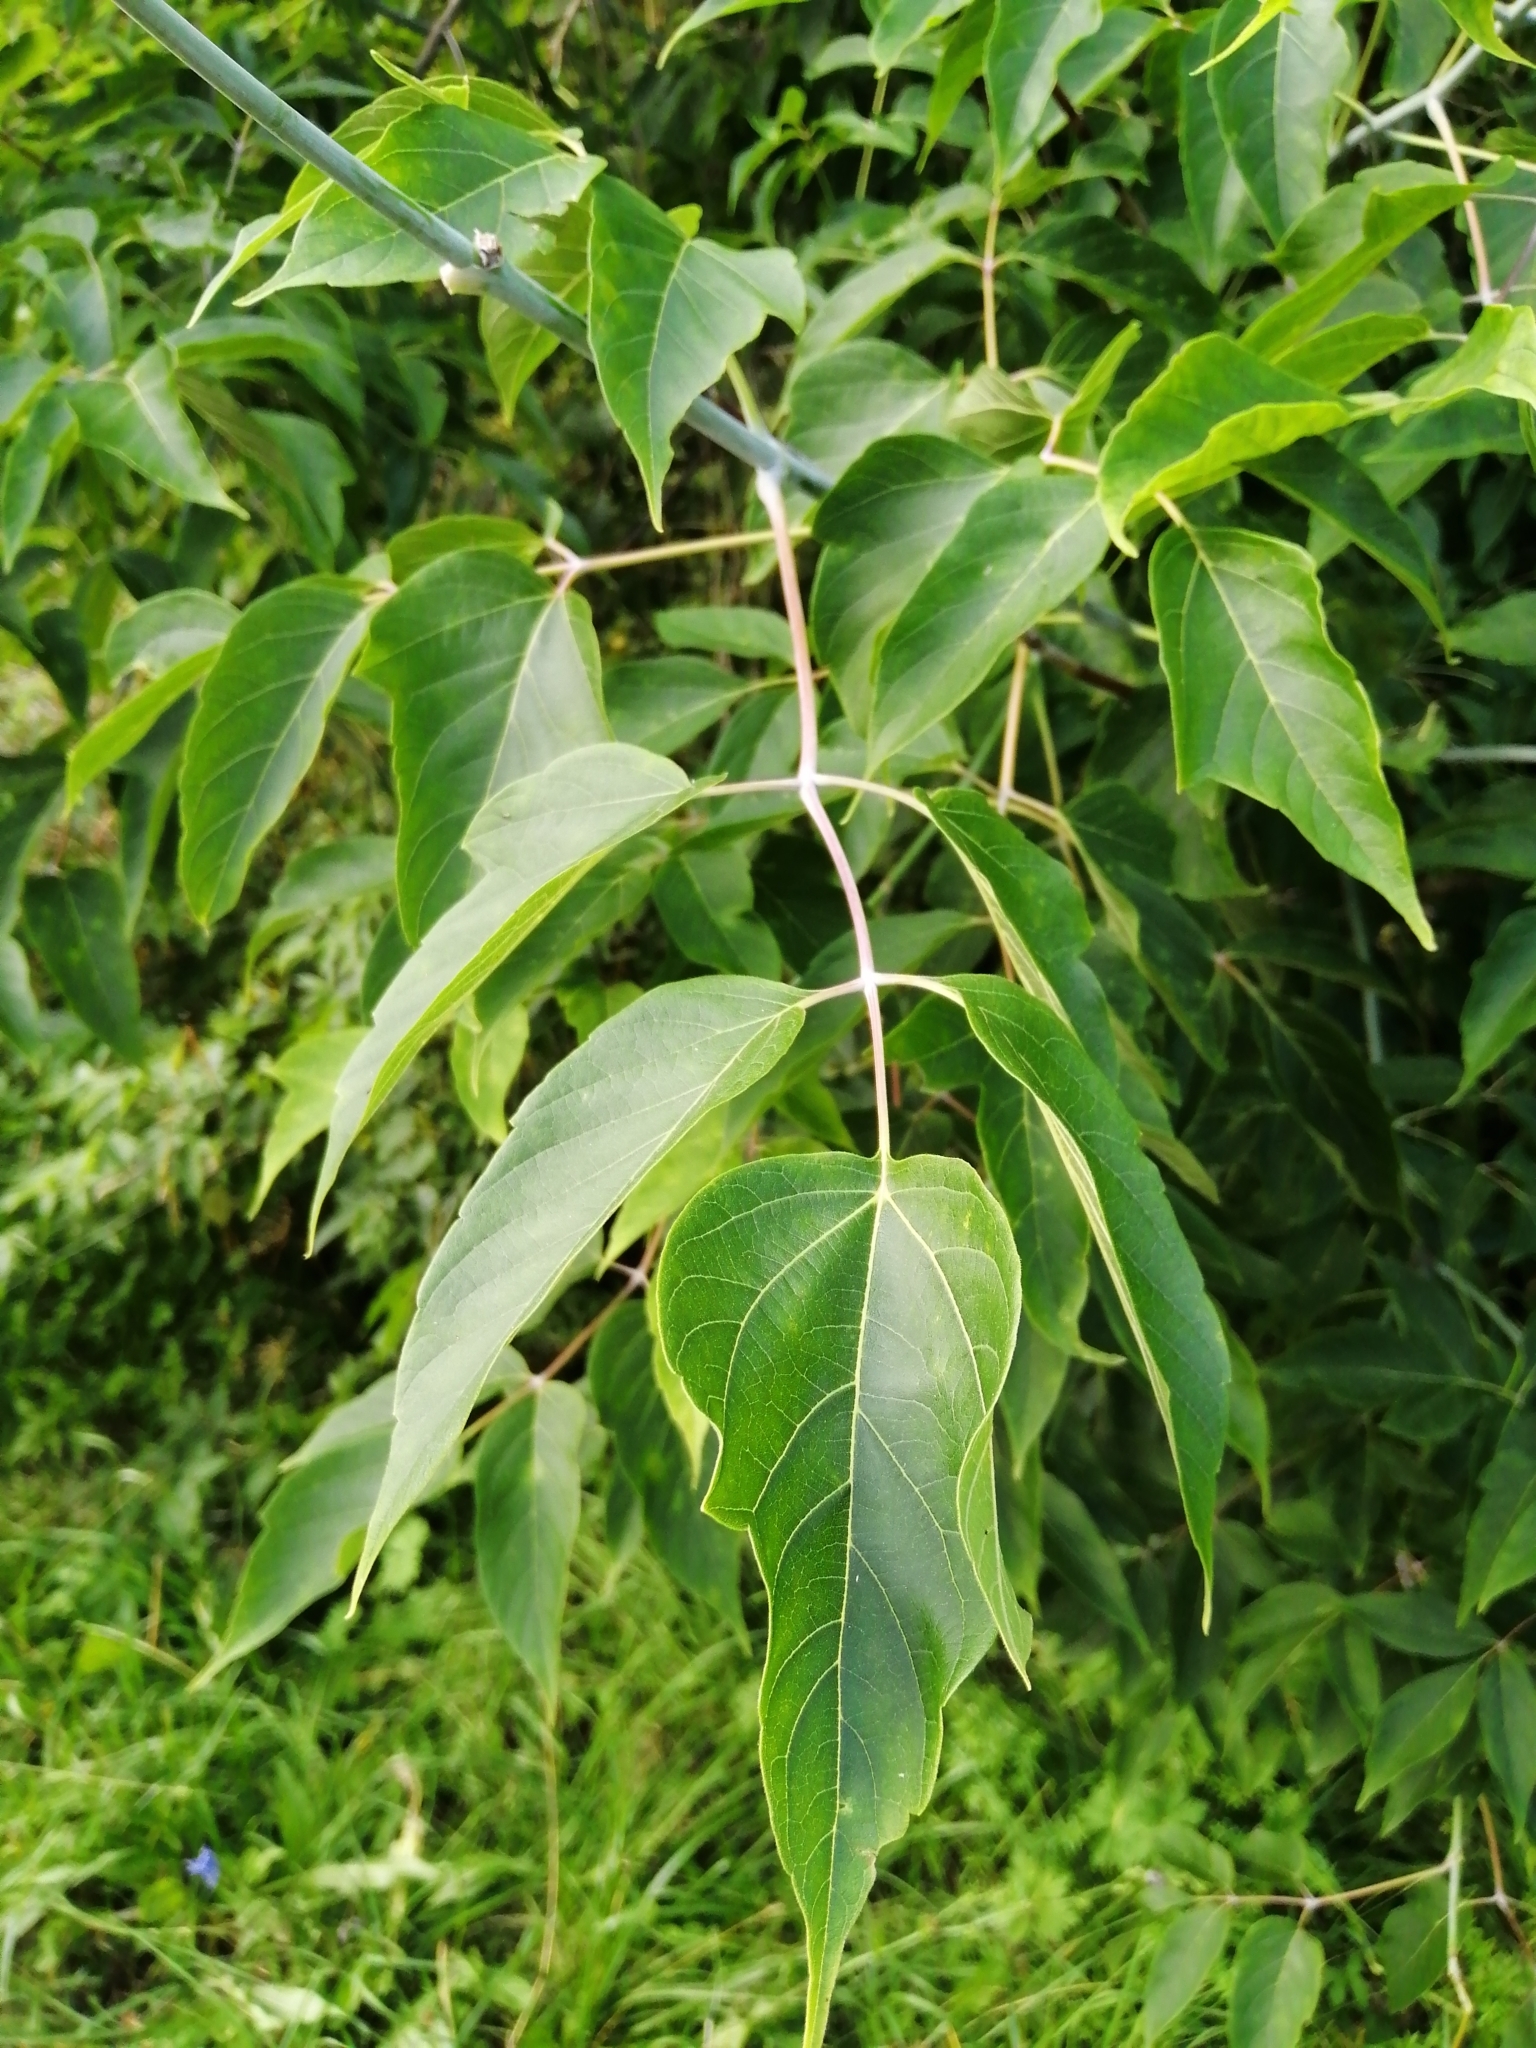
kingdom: Plantae
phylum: Tracheophyta
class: Magnoliopsida
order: Sapindales
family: Sapindaceae
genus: Acer
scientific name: Acer negundo
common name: Ashleaf maple
